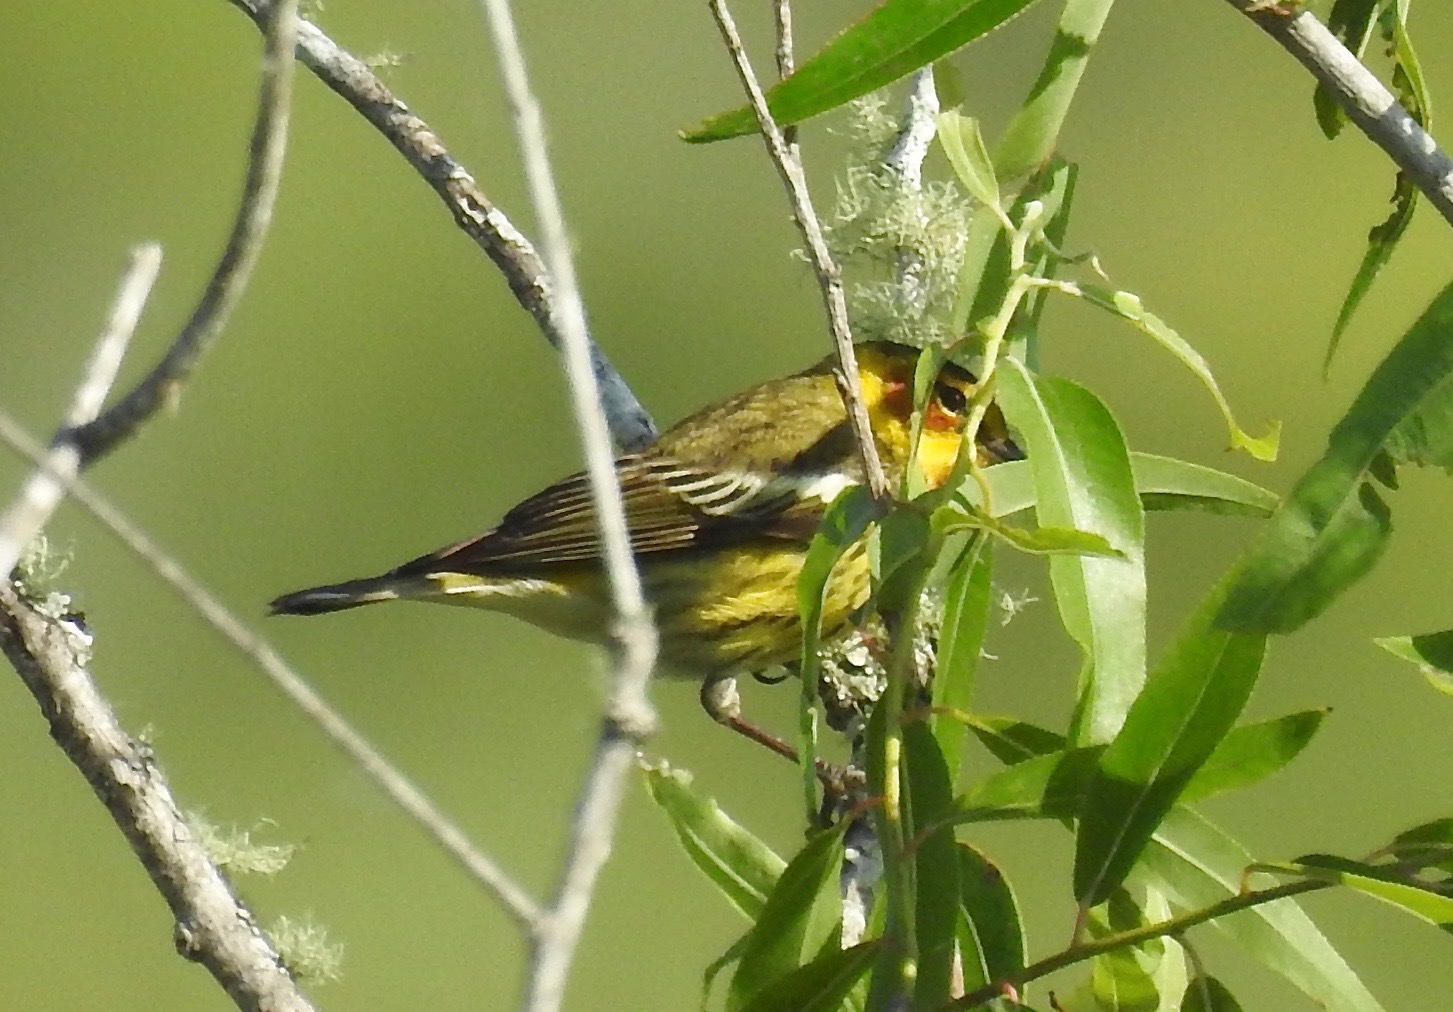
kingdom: Animalia
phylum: Chordata
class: Aves
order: Passeriformes
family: Parulidae
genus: Setophaga
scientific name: Setophaga tigrina
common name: Cape may warbler
